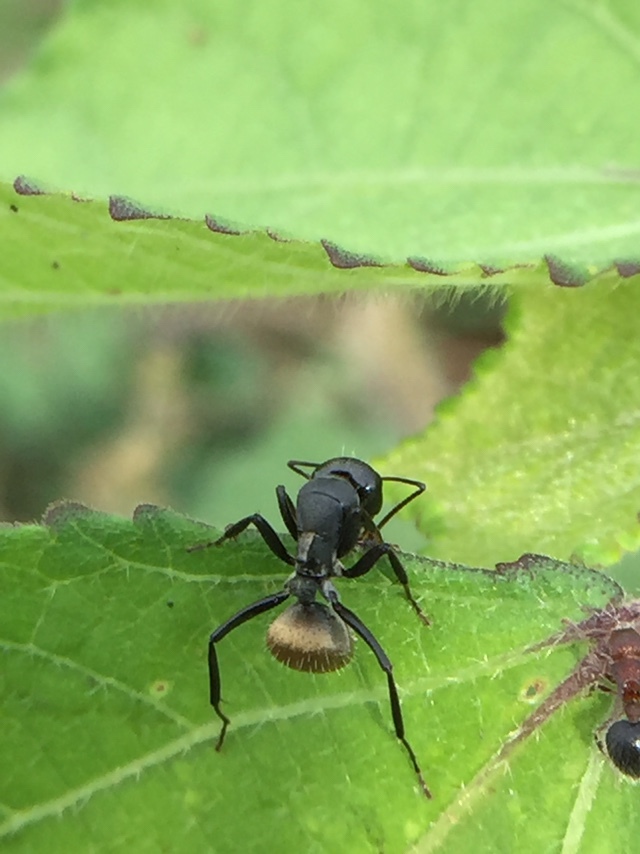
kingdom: Animalia
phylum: Arthropoda
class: Insecta
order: Hymenoptera
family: Formicidae
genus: Camponotus
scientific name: Camponotus sericeus
